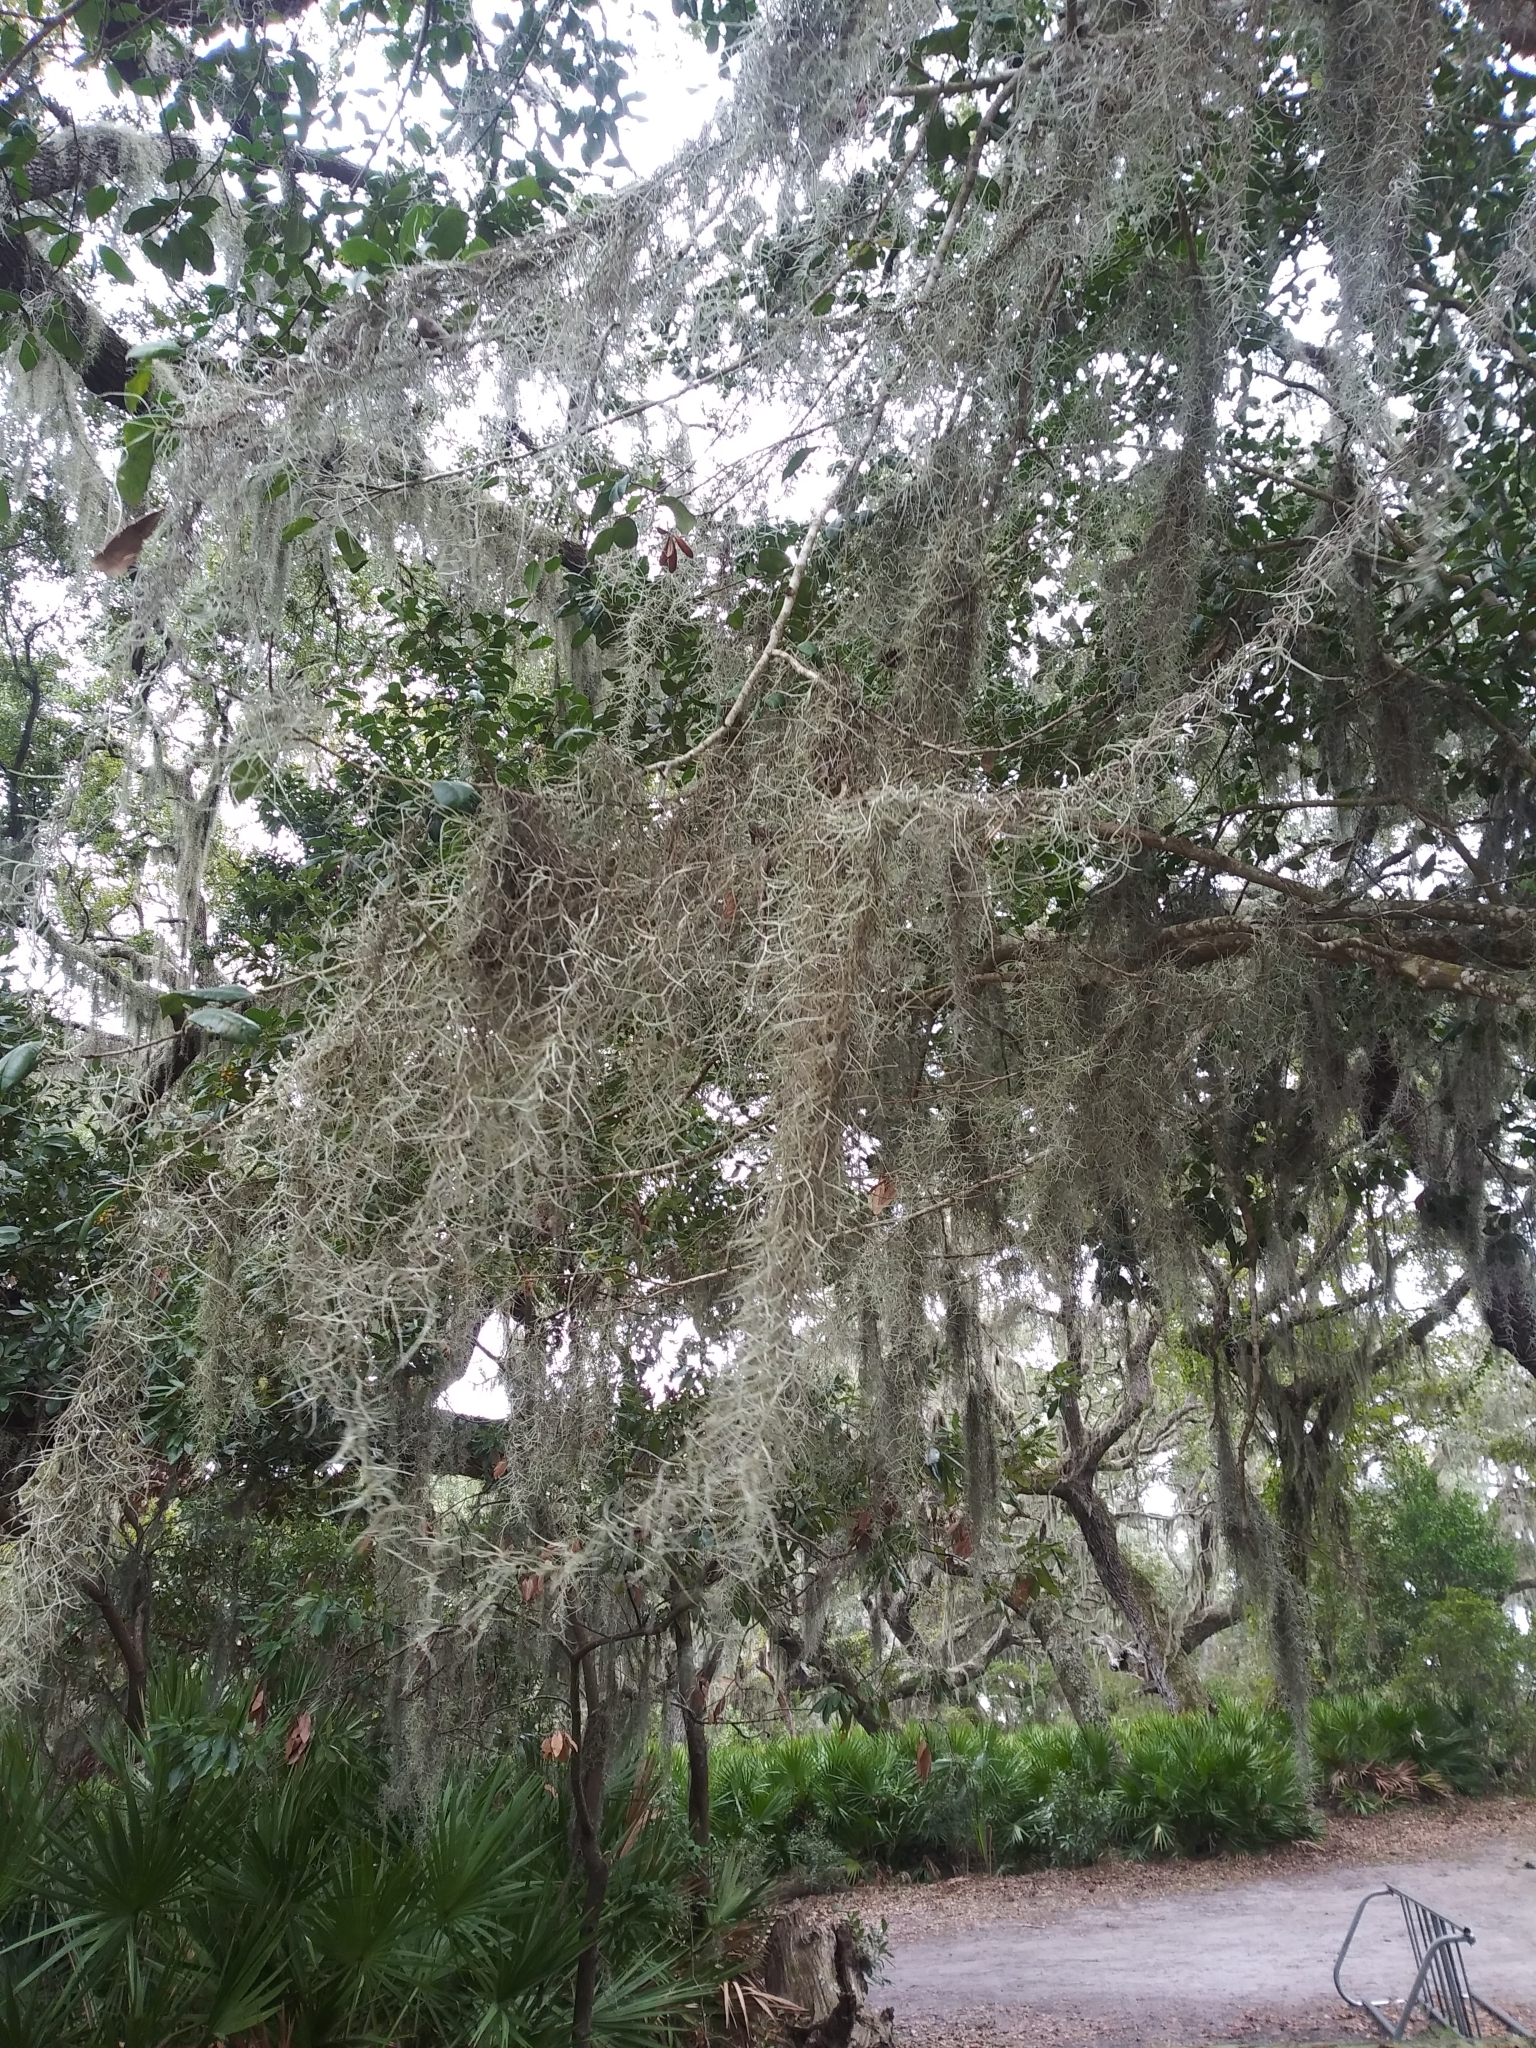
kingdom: Plantae
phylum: Tracheophyta
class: Liliopsida
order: Poales
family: Bromeliaceae
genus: Tillandsia
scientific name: Tillandsia usneoides
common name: Spanish moss
